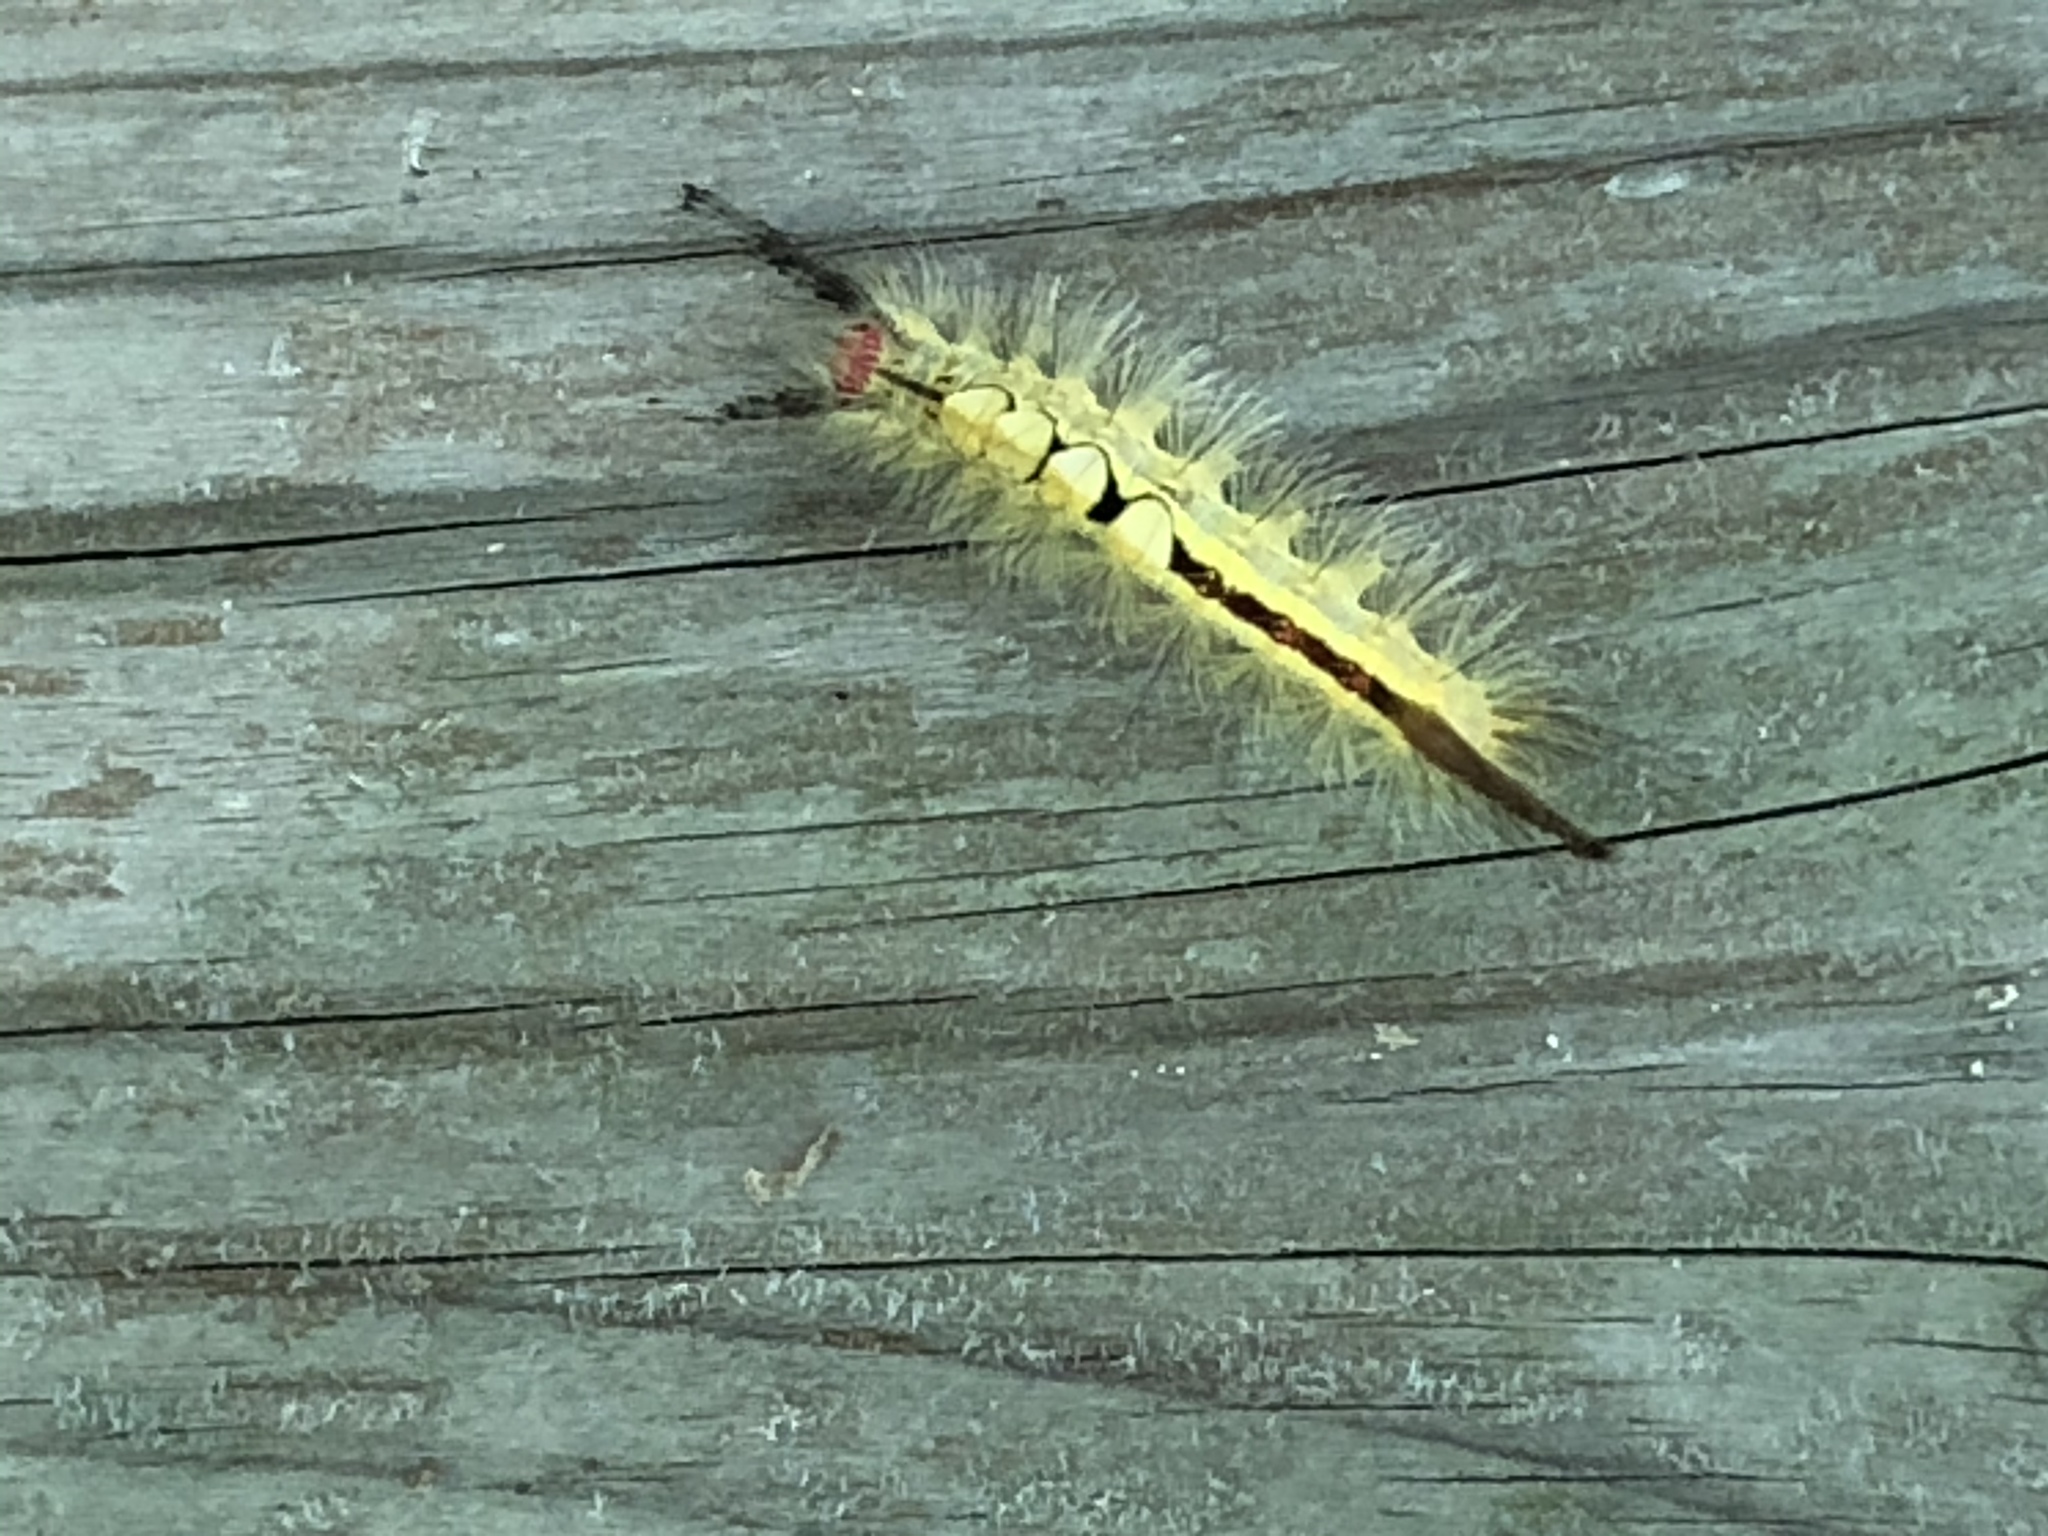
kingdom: Animalia
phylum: Arthropoda
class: Insecta
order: Lepidoptera
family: Erebidae
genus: Orgyia
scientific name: Orgyia leucostigma
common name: White-marked tussock moth
